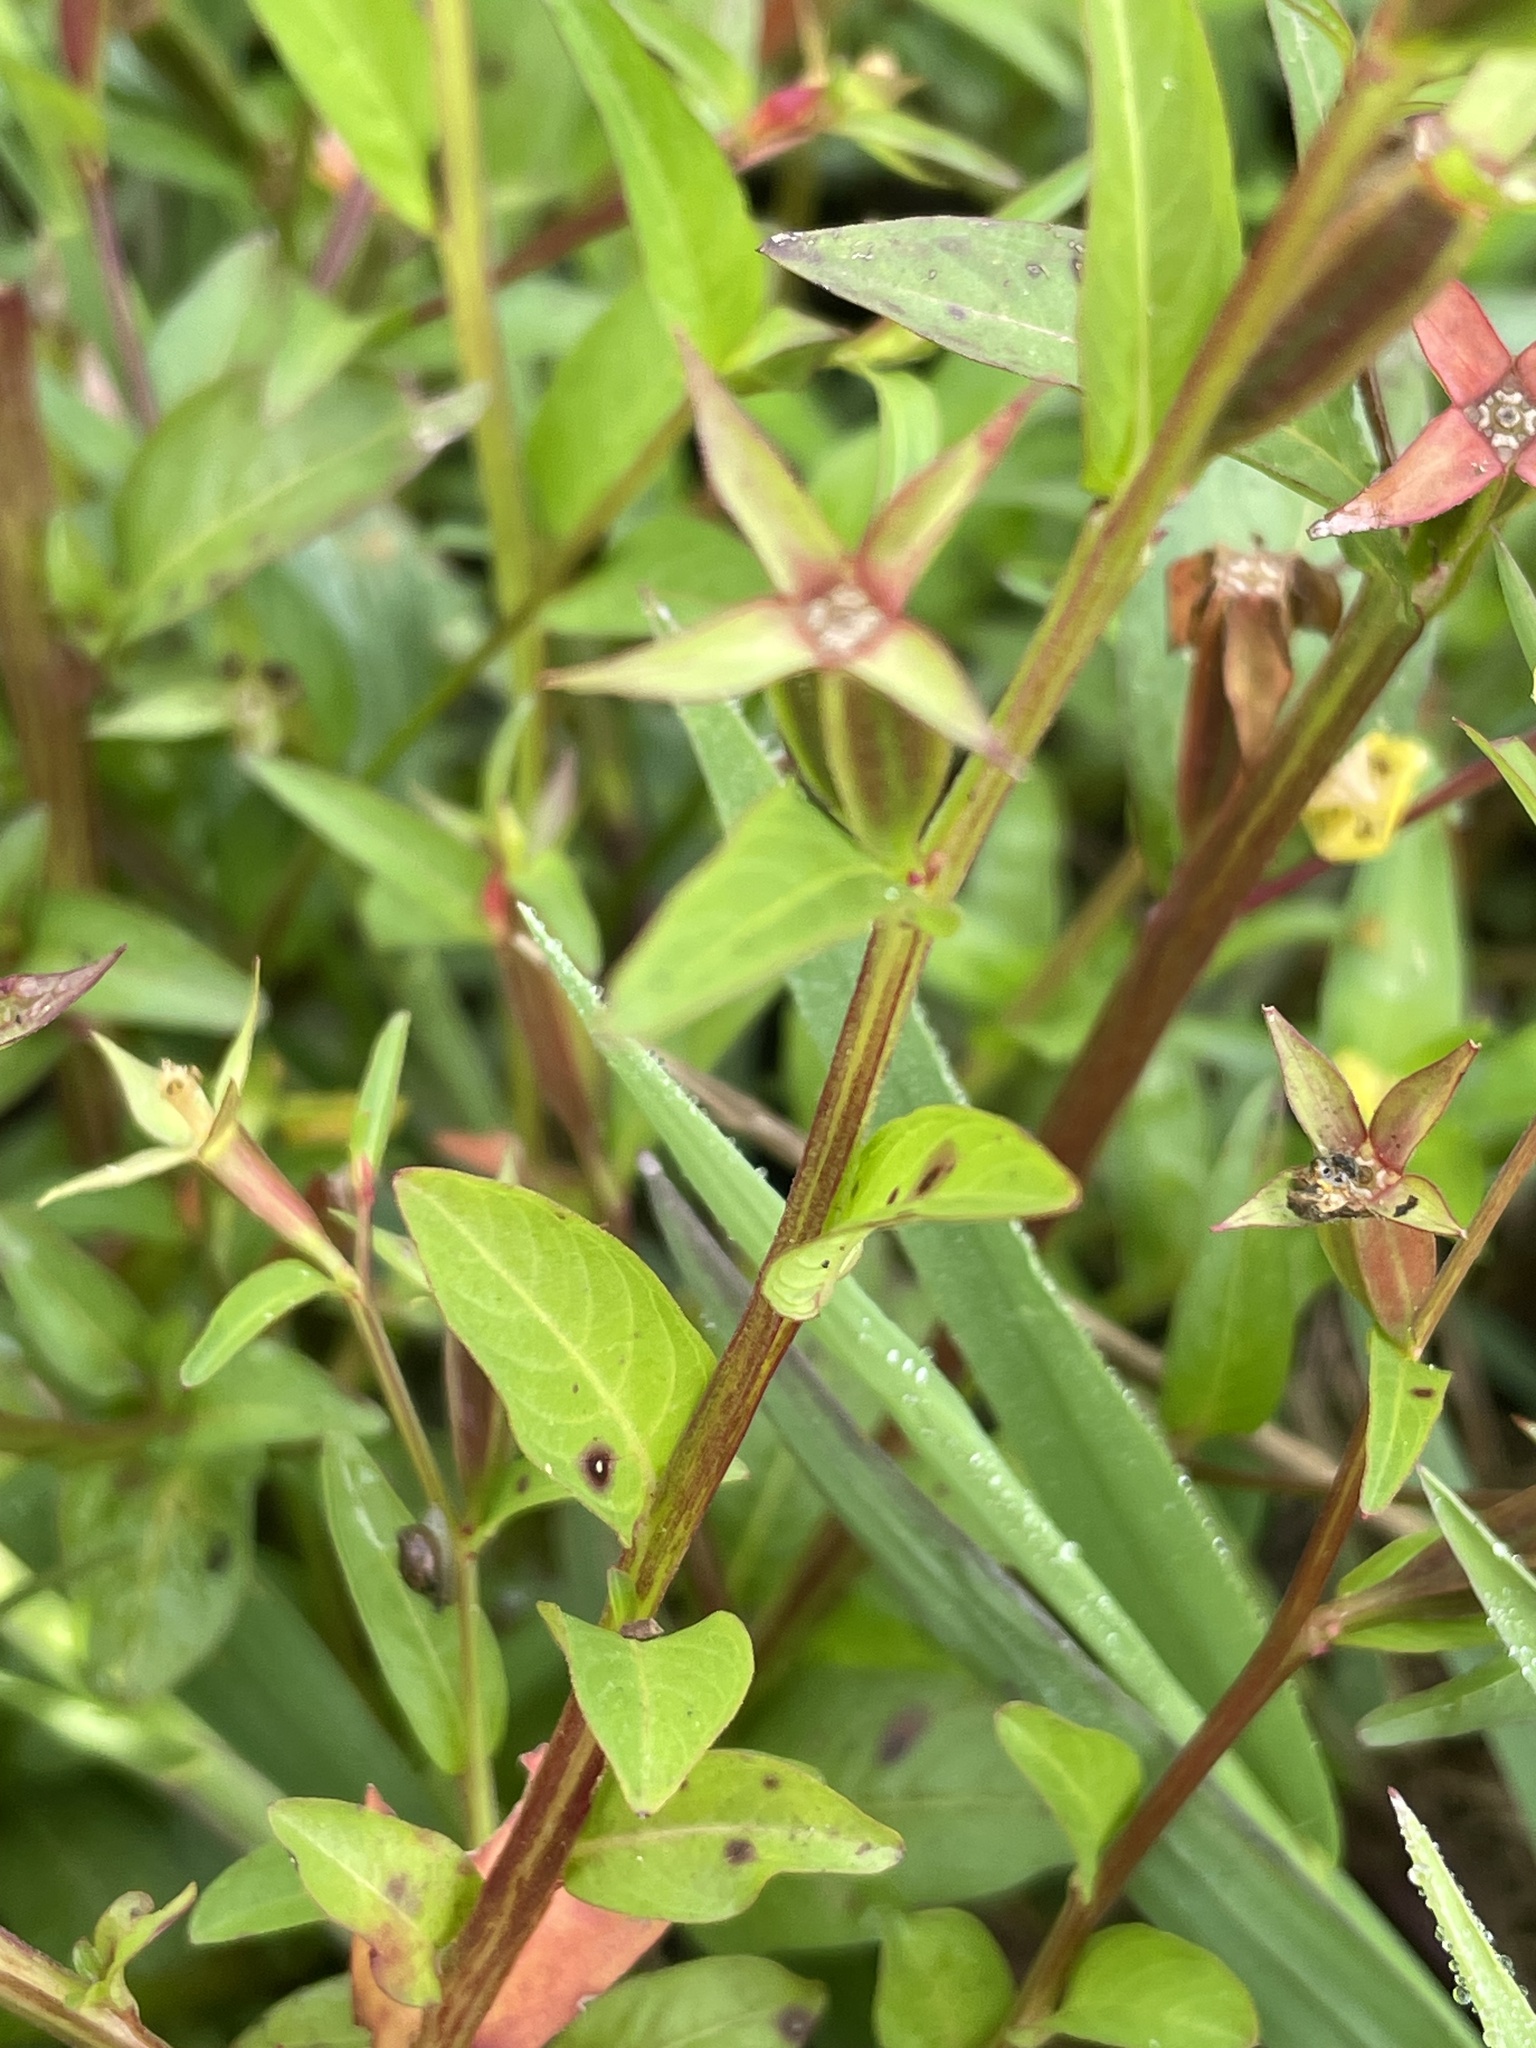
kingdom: Plantae
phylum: Tracheophyta
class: Magnoliopsida
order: Myrtales
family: Onagraceae
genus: Ludwigia
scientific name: Ludwigia decurrens
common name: Winged water-primrose
